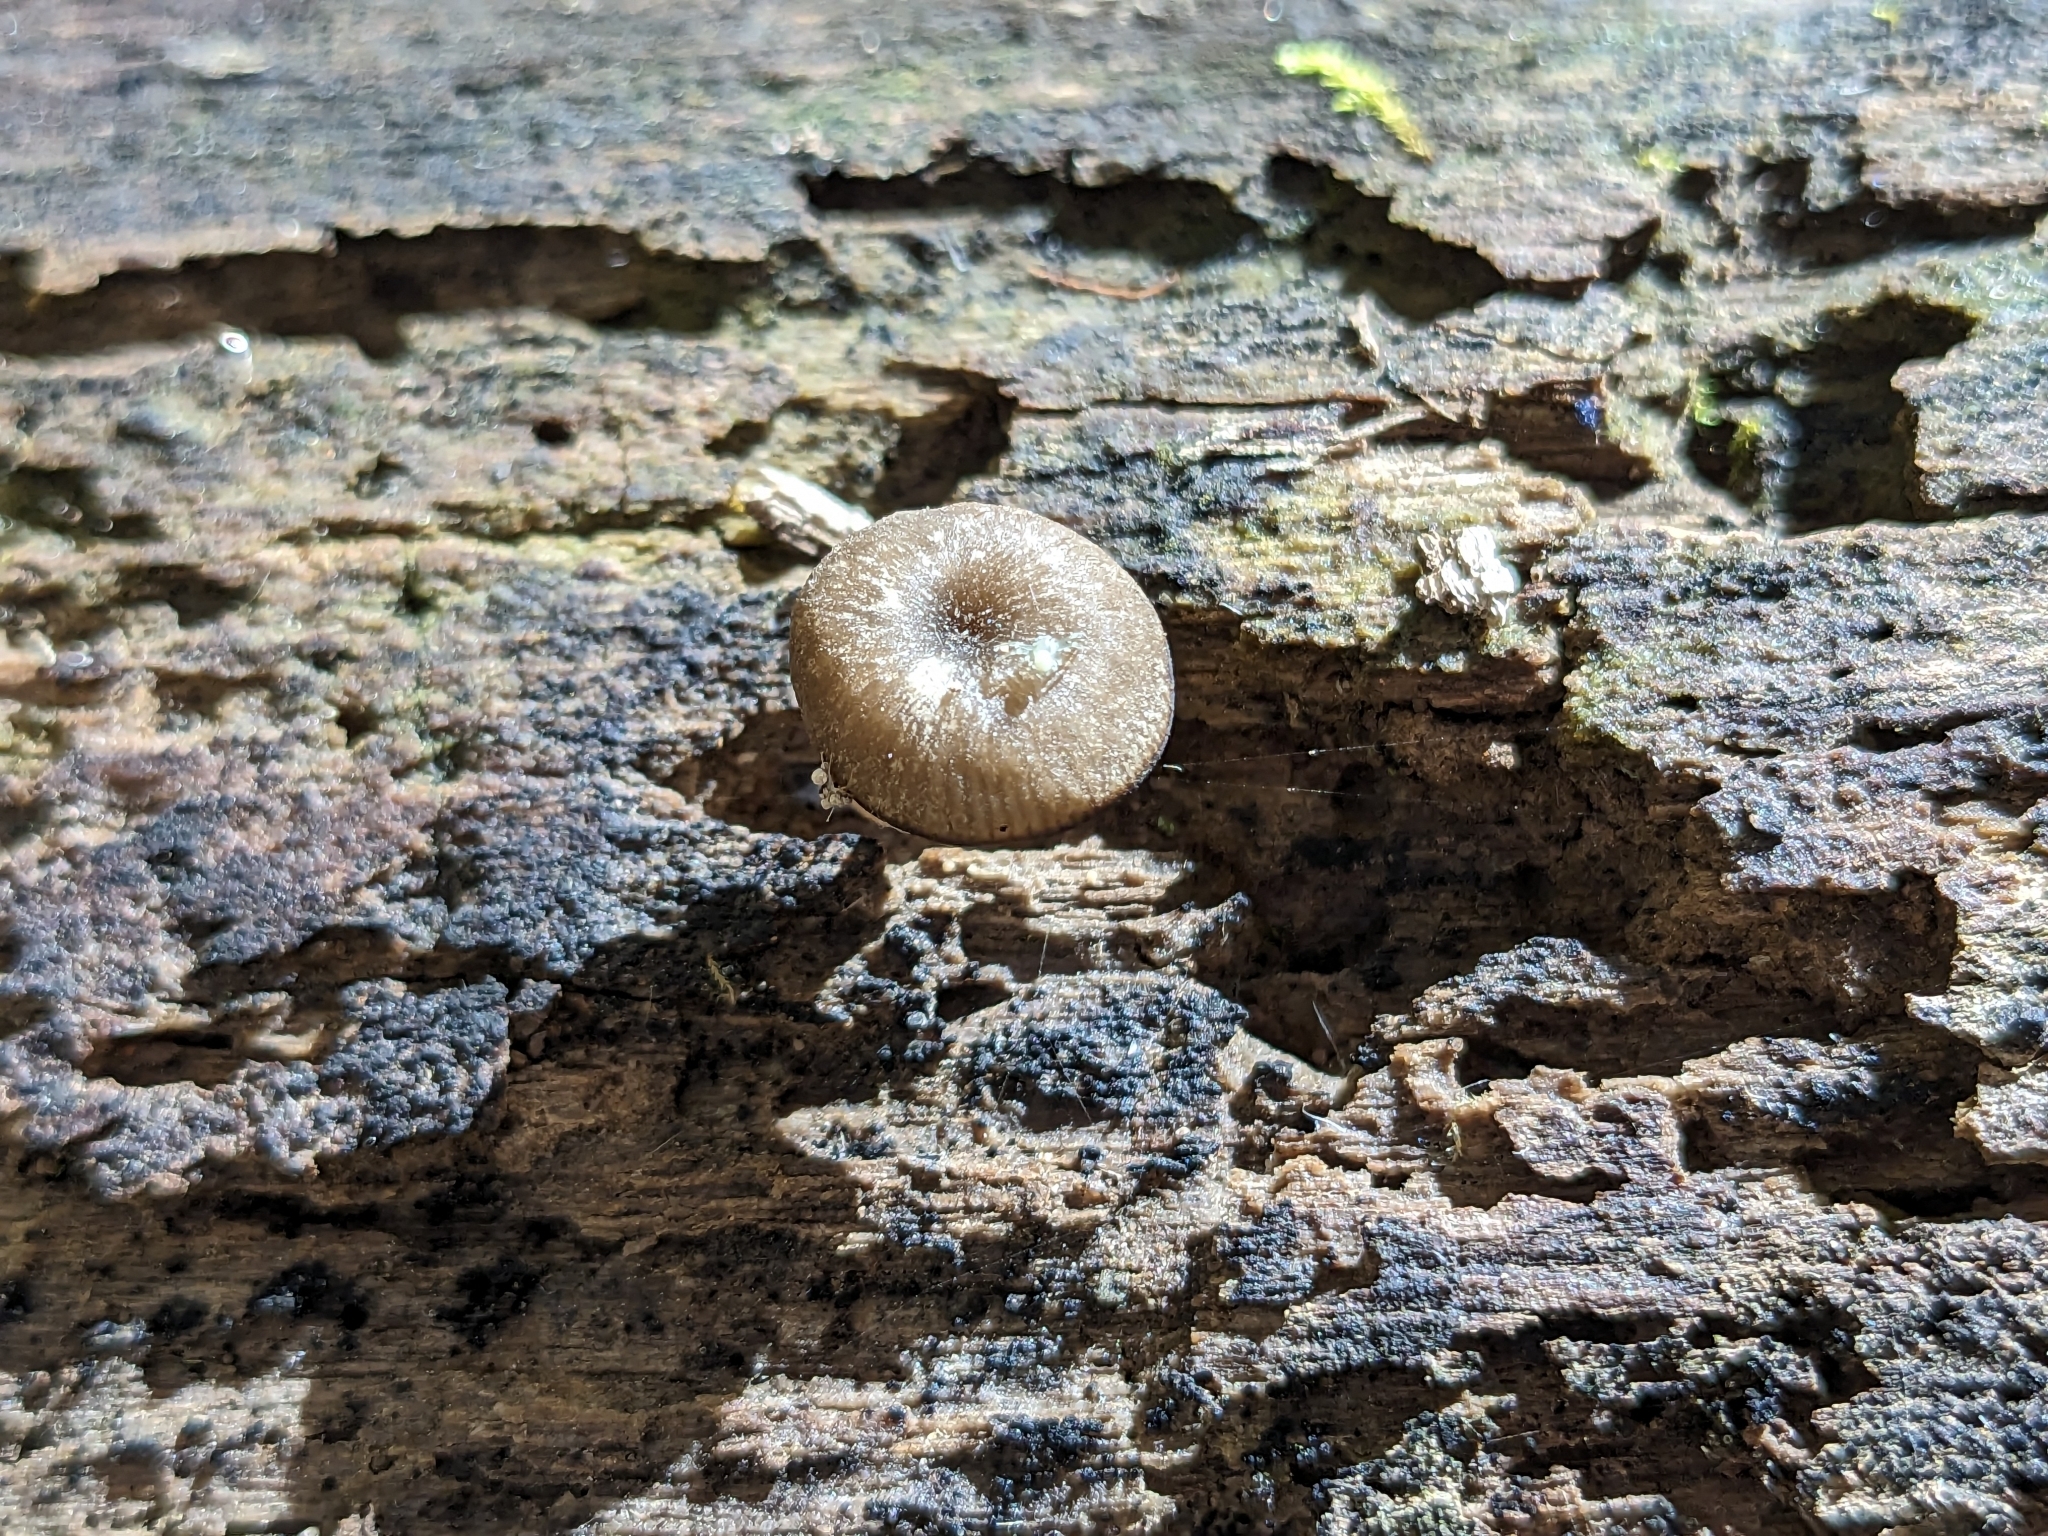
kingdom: Fungi
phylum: Basidiomycota
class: Agaricomycetes
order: Agaricales
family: Hygrophoraceae
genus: Arrhenia
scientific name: Arrhenia epichysium
